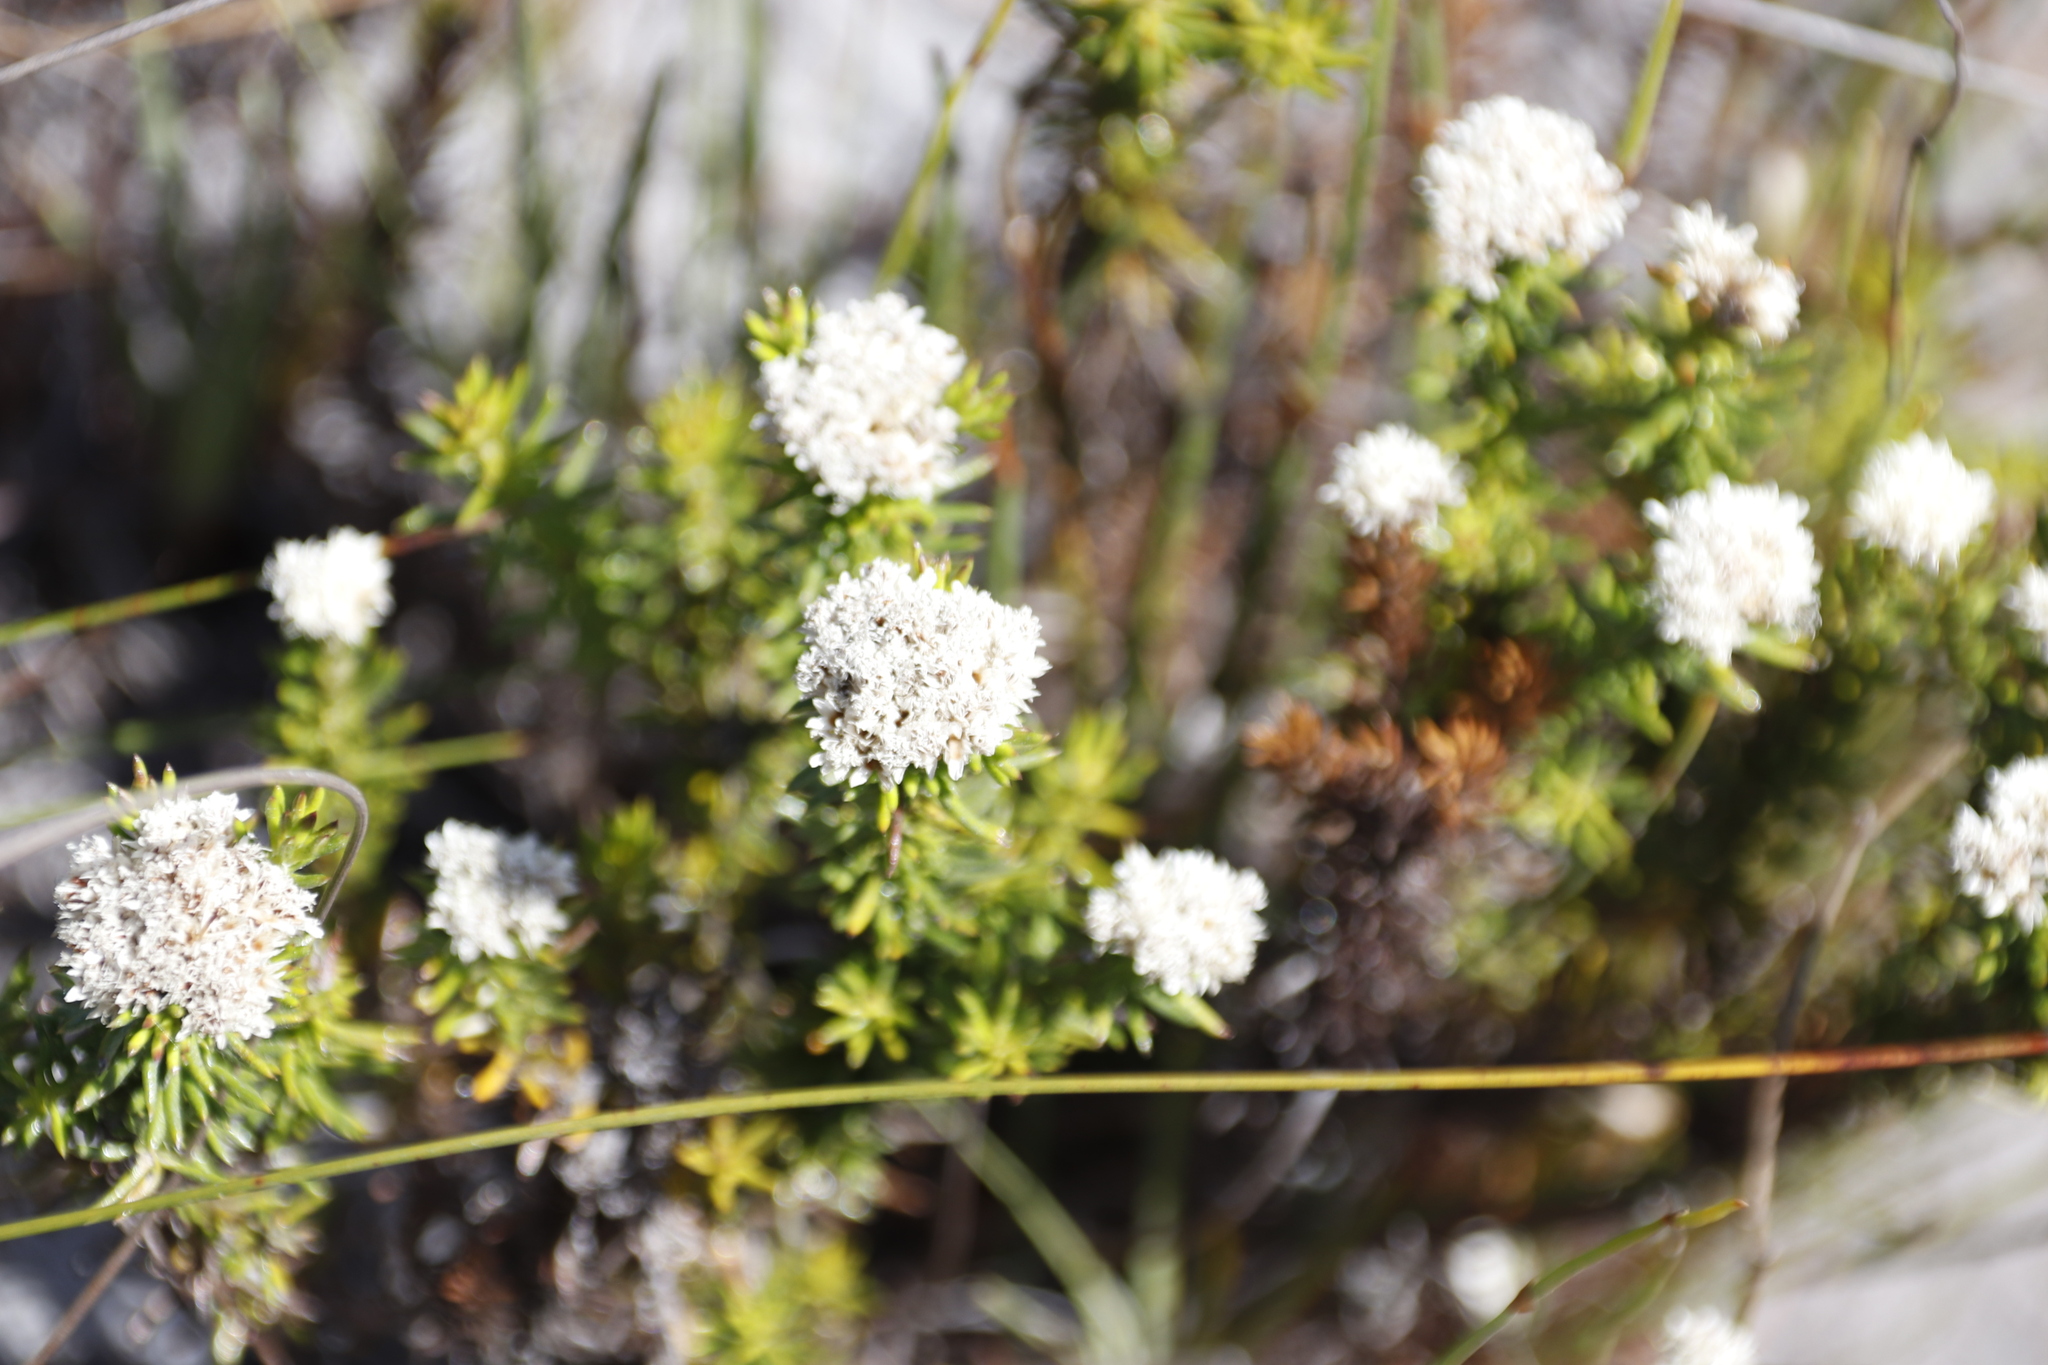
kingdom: Plantae
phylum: Tracheophyta
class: Magnoliopsida
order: Asterales
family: Asteraceae
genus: Metalasia
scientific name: Metalasia pulchella
